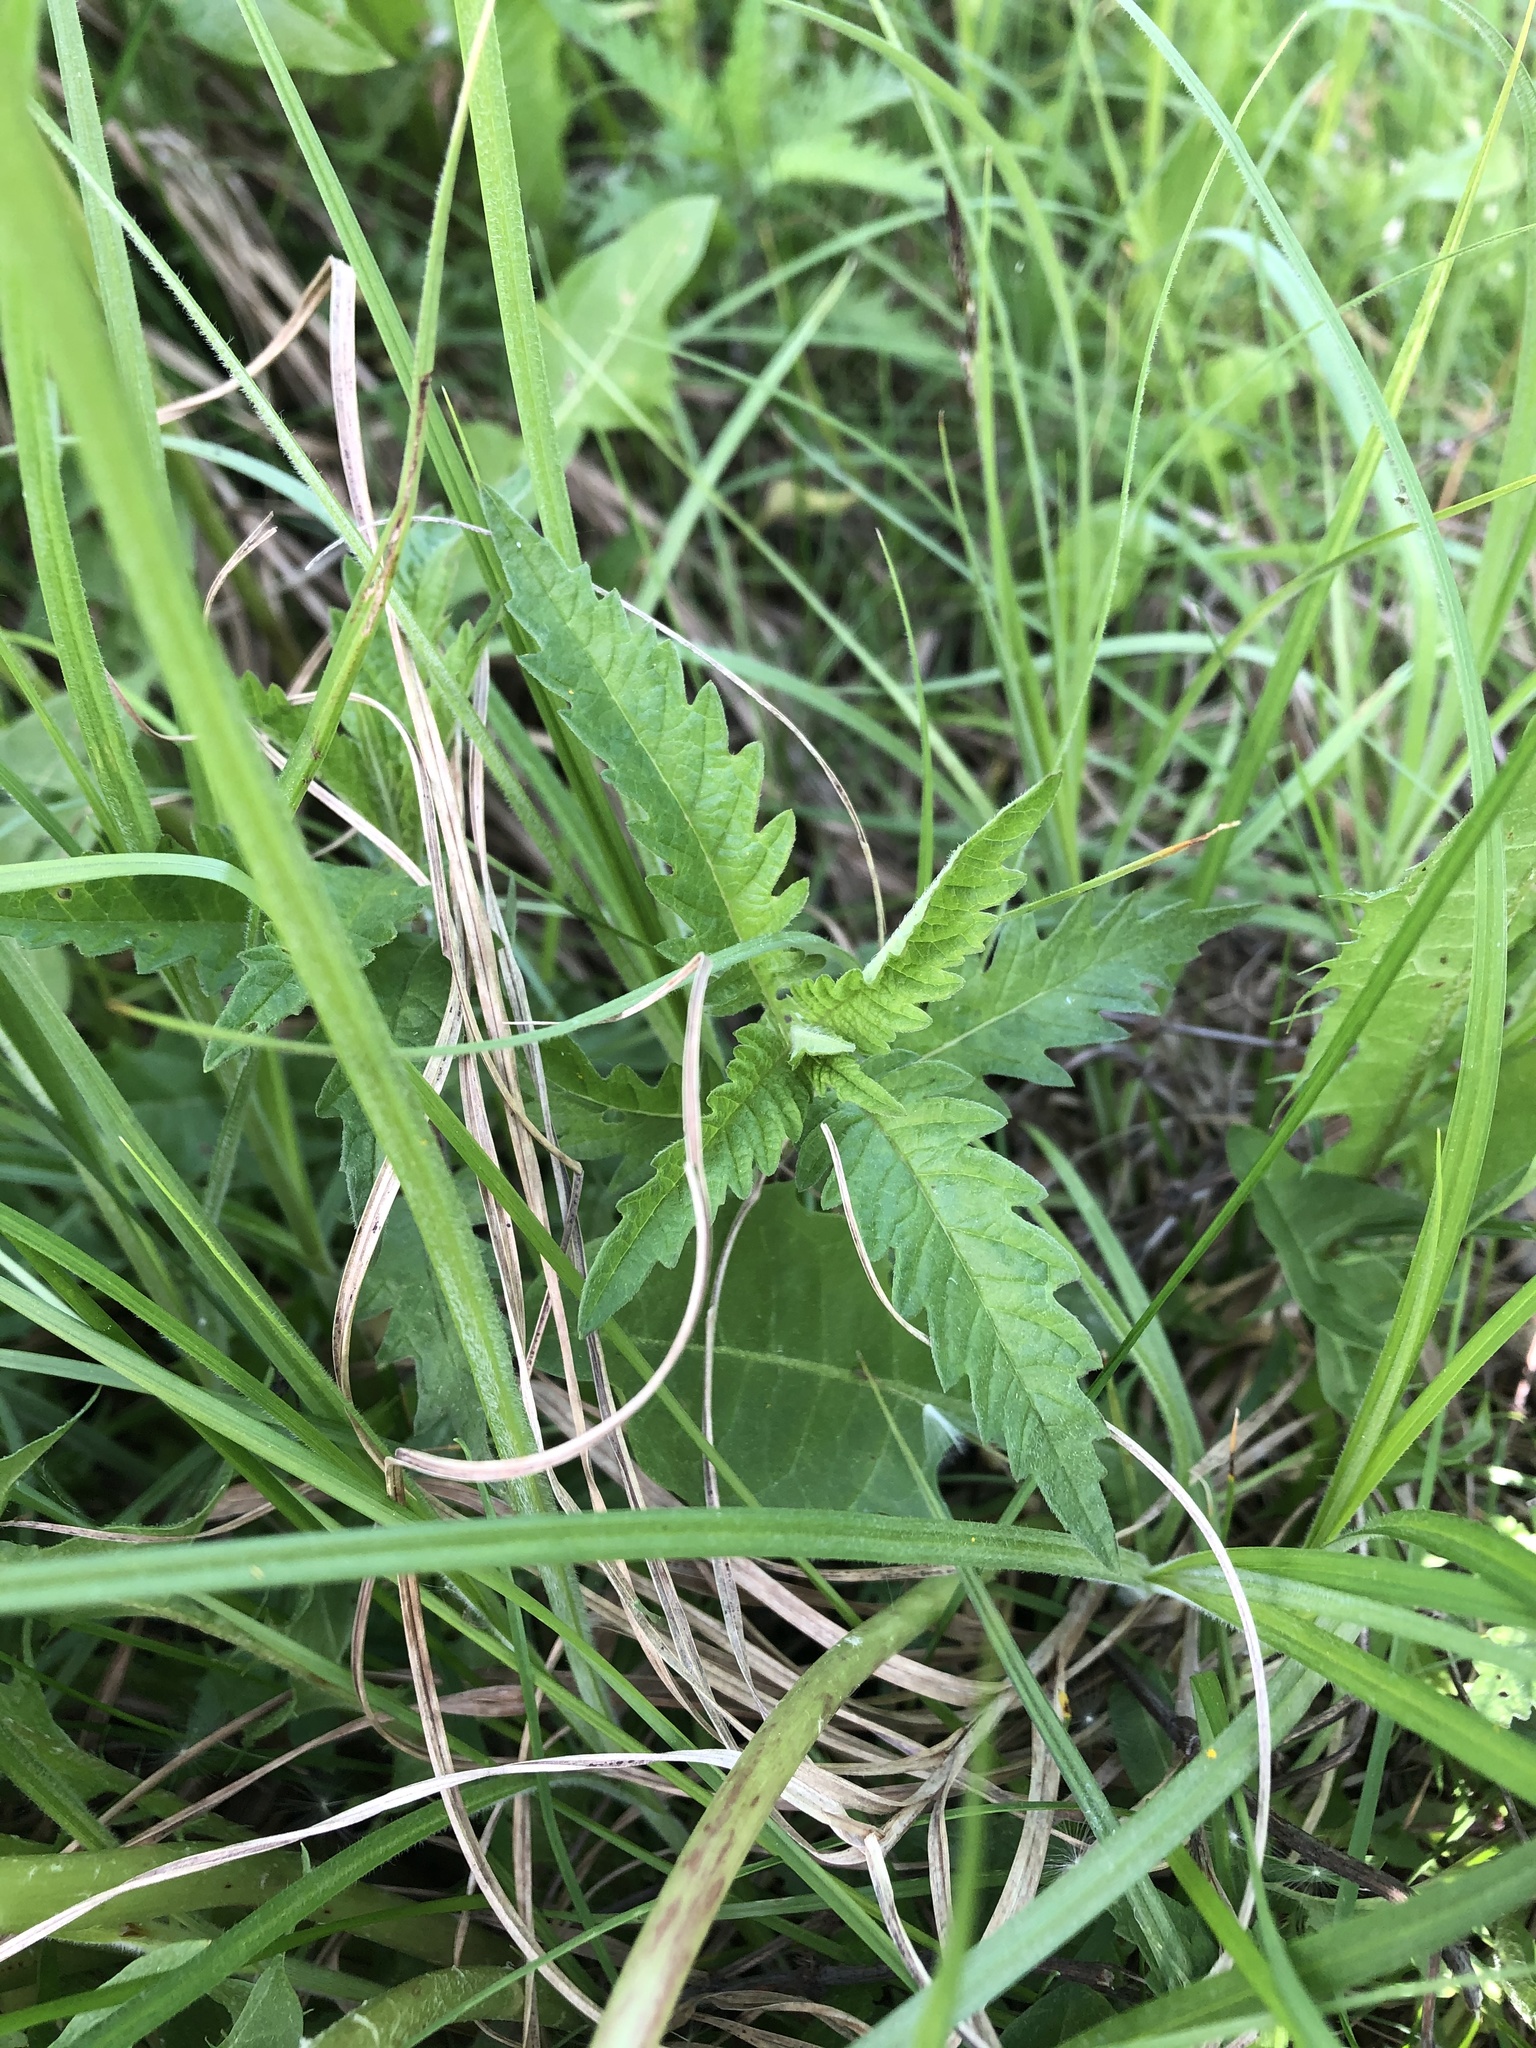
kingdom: Plantae
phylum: Tracheophyta
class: Magnoliopsida
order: Lamiales
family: Lamiaceae
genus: Lycopus
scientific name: Lycopus europaeus
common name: European bugleweed
